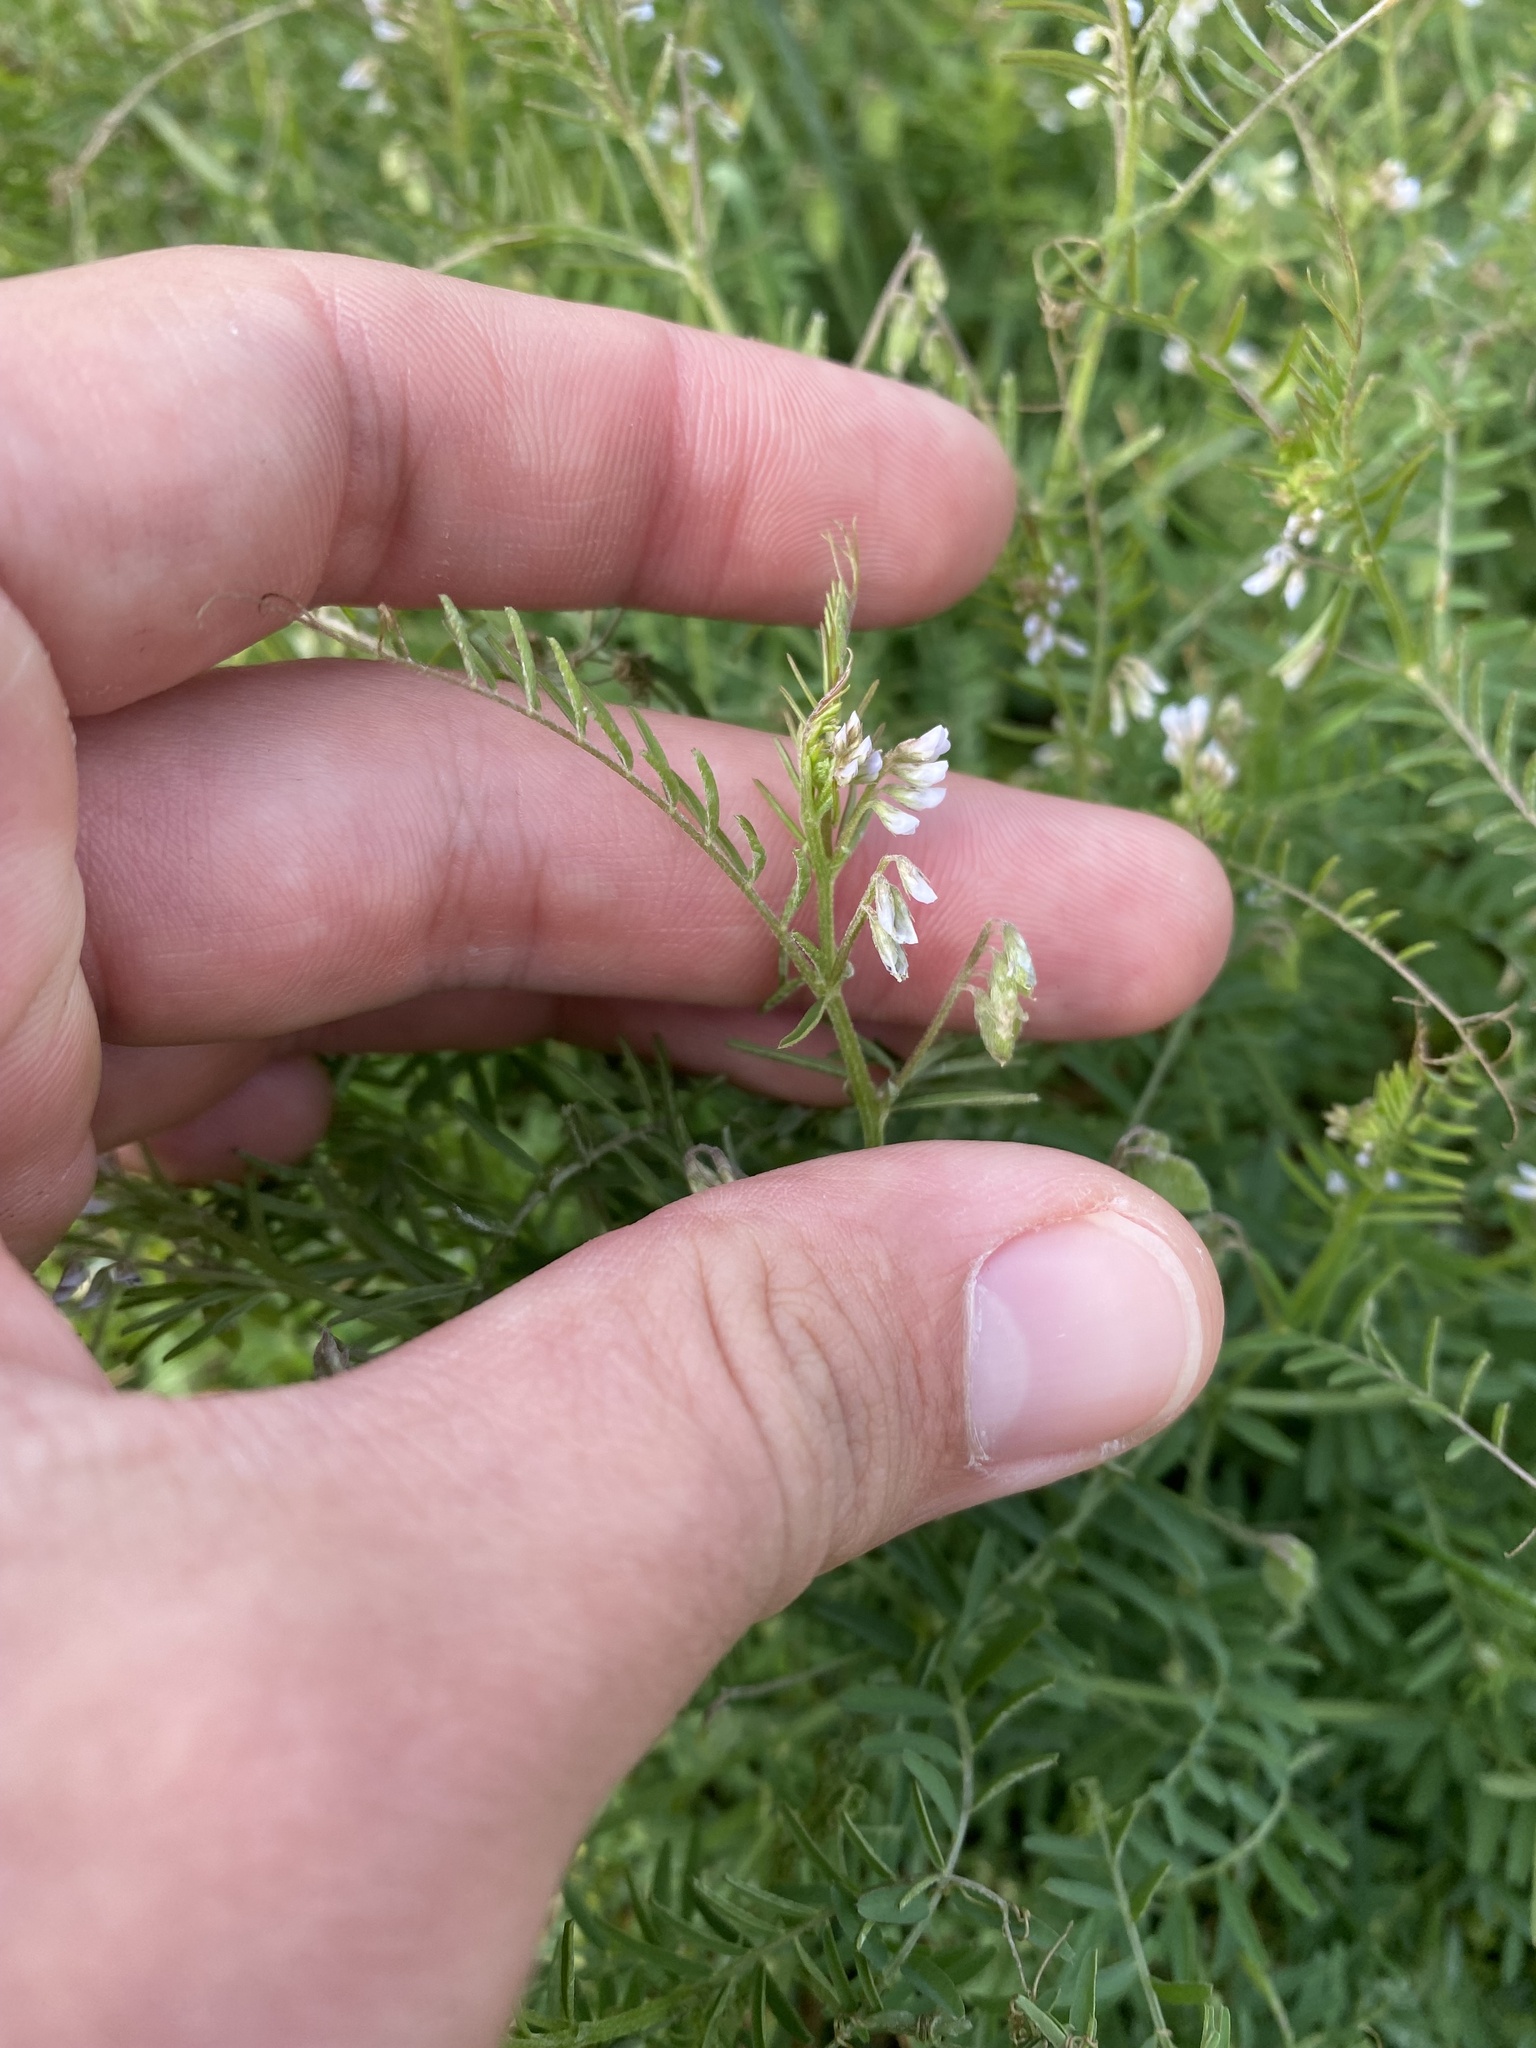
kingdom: Plantae
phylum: Tracheophyta
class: Magnoliopsida
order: Fabales
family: Fabaceae
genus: Vicia
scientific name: Vicia hirsuta
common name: Tiny vetch
